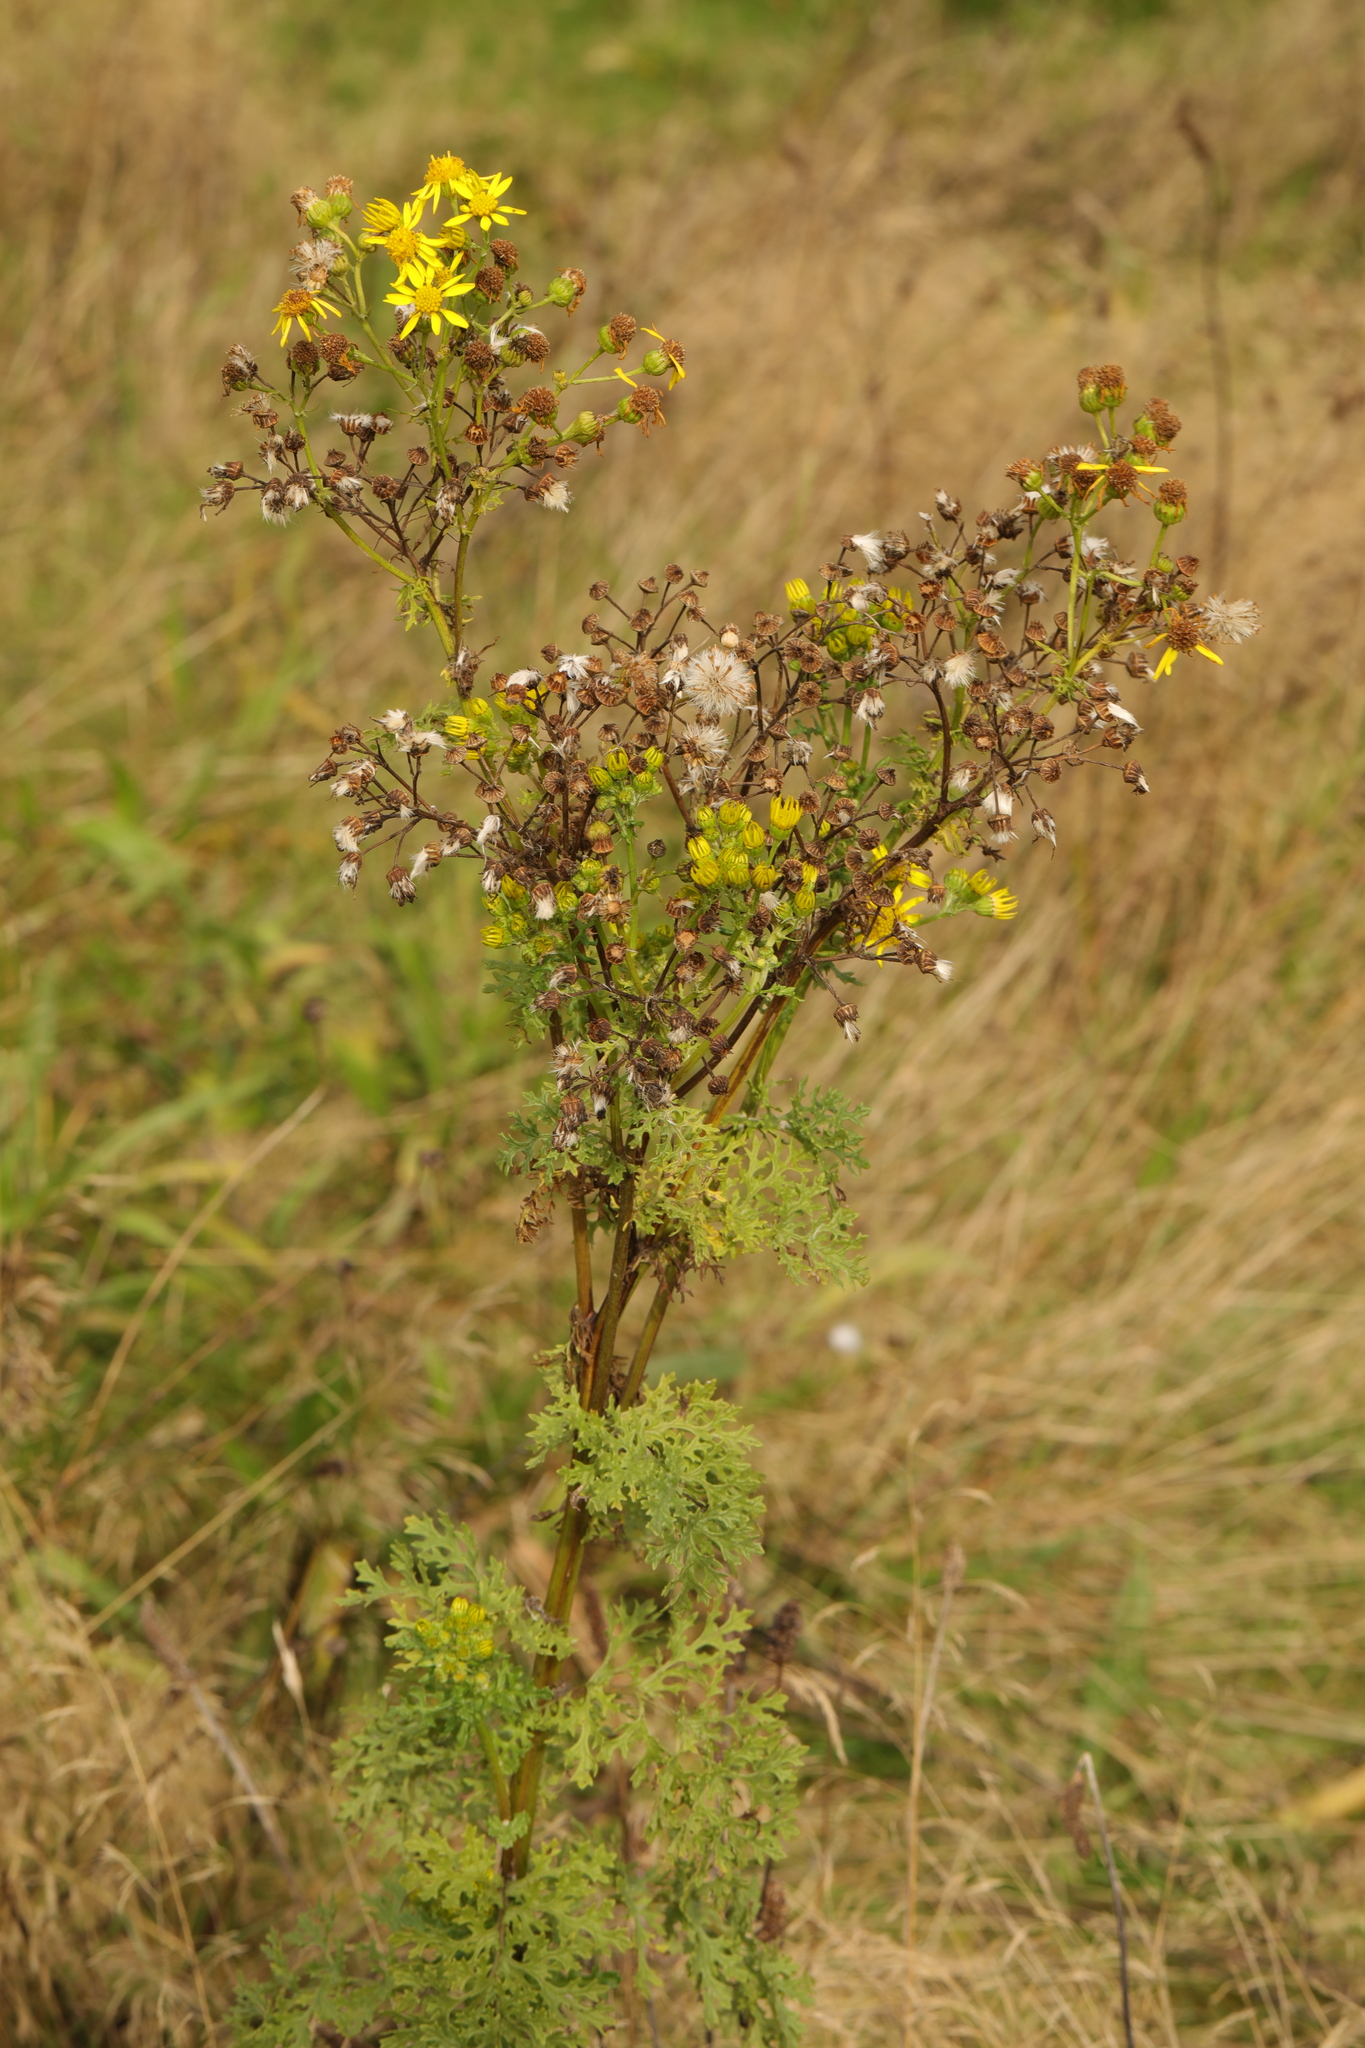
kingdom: Plantae
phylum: Tracheophyta
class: Magnoliopsida
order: Asterales
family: Asteraceae
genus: Jacobaea
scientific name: Jacobaea vulgaris
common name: Stinking willie
